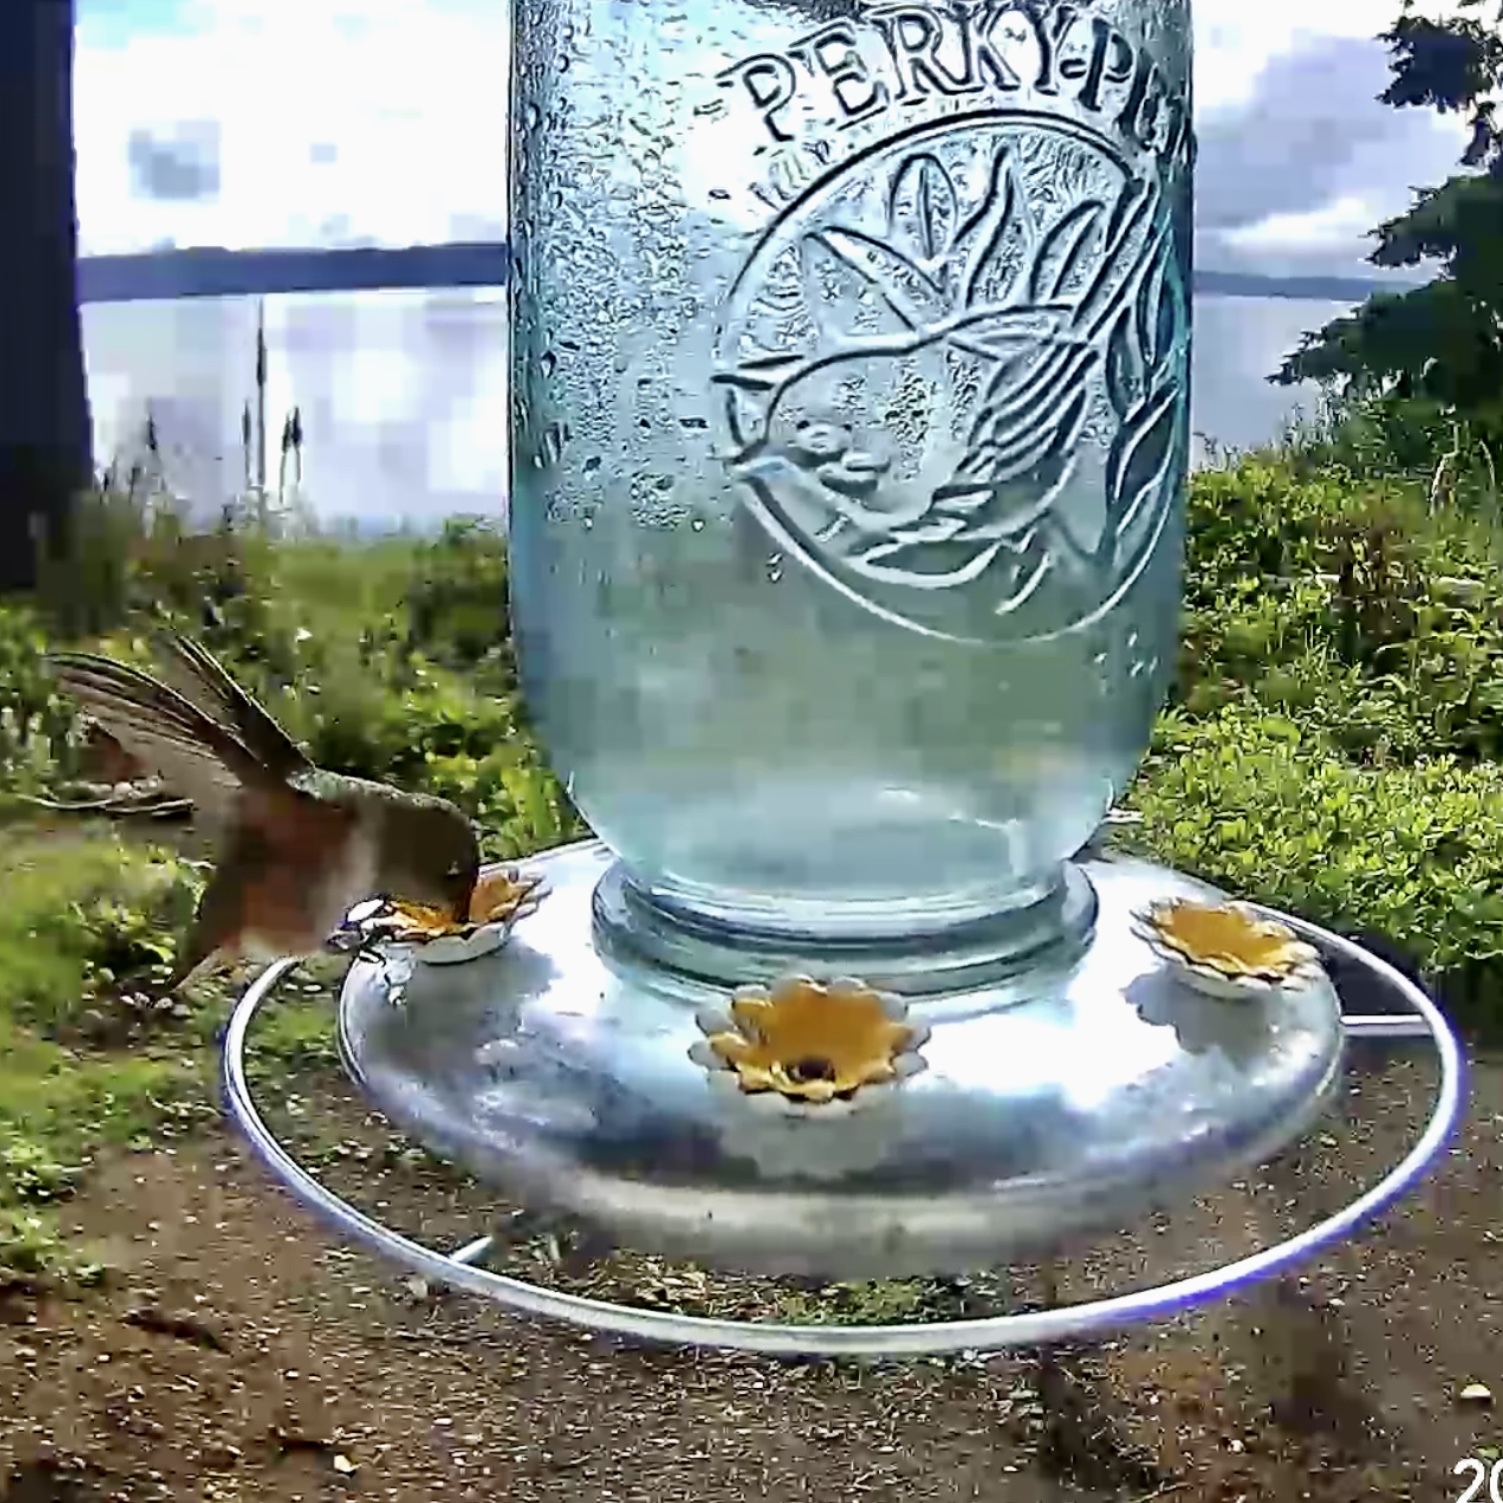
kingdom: Animalia
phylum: Chordata
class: Aves
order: Apodiformes
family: Trochilidae
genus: Selasphorus
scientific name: Selasphorus rufus
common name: Rufous hummingbird
